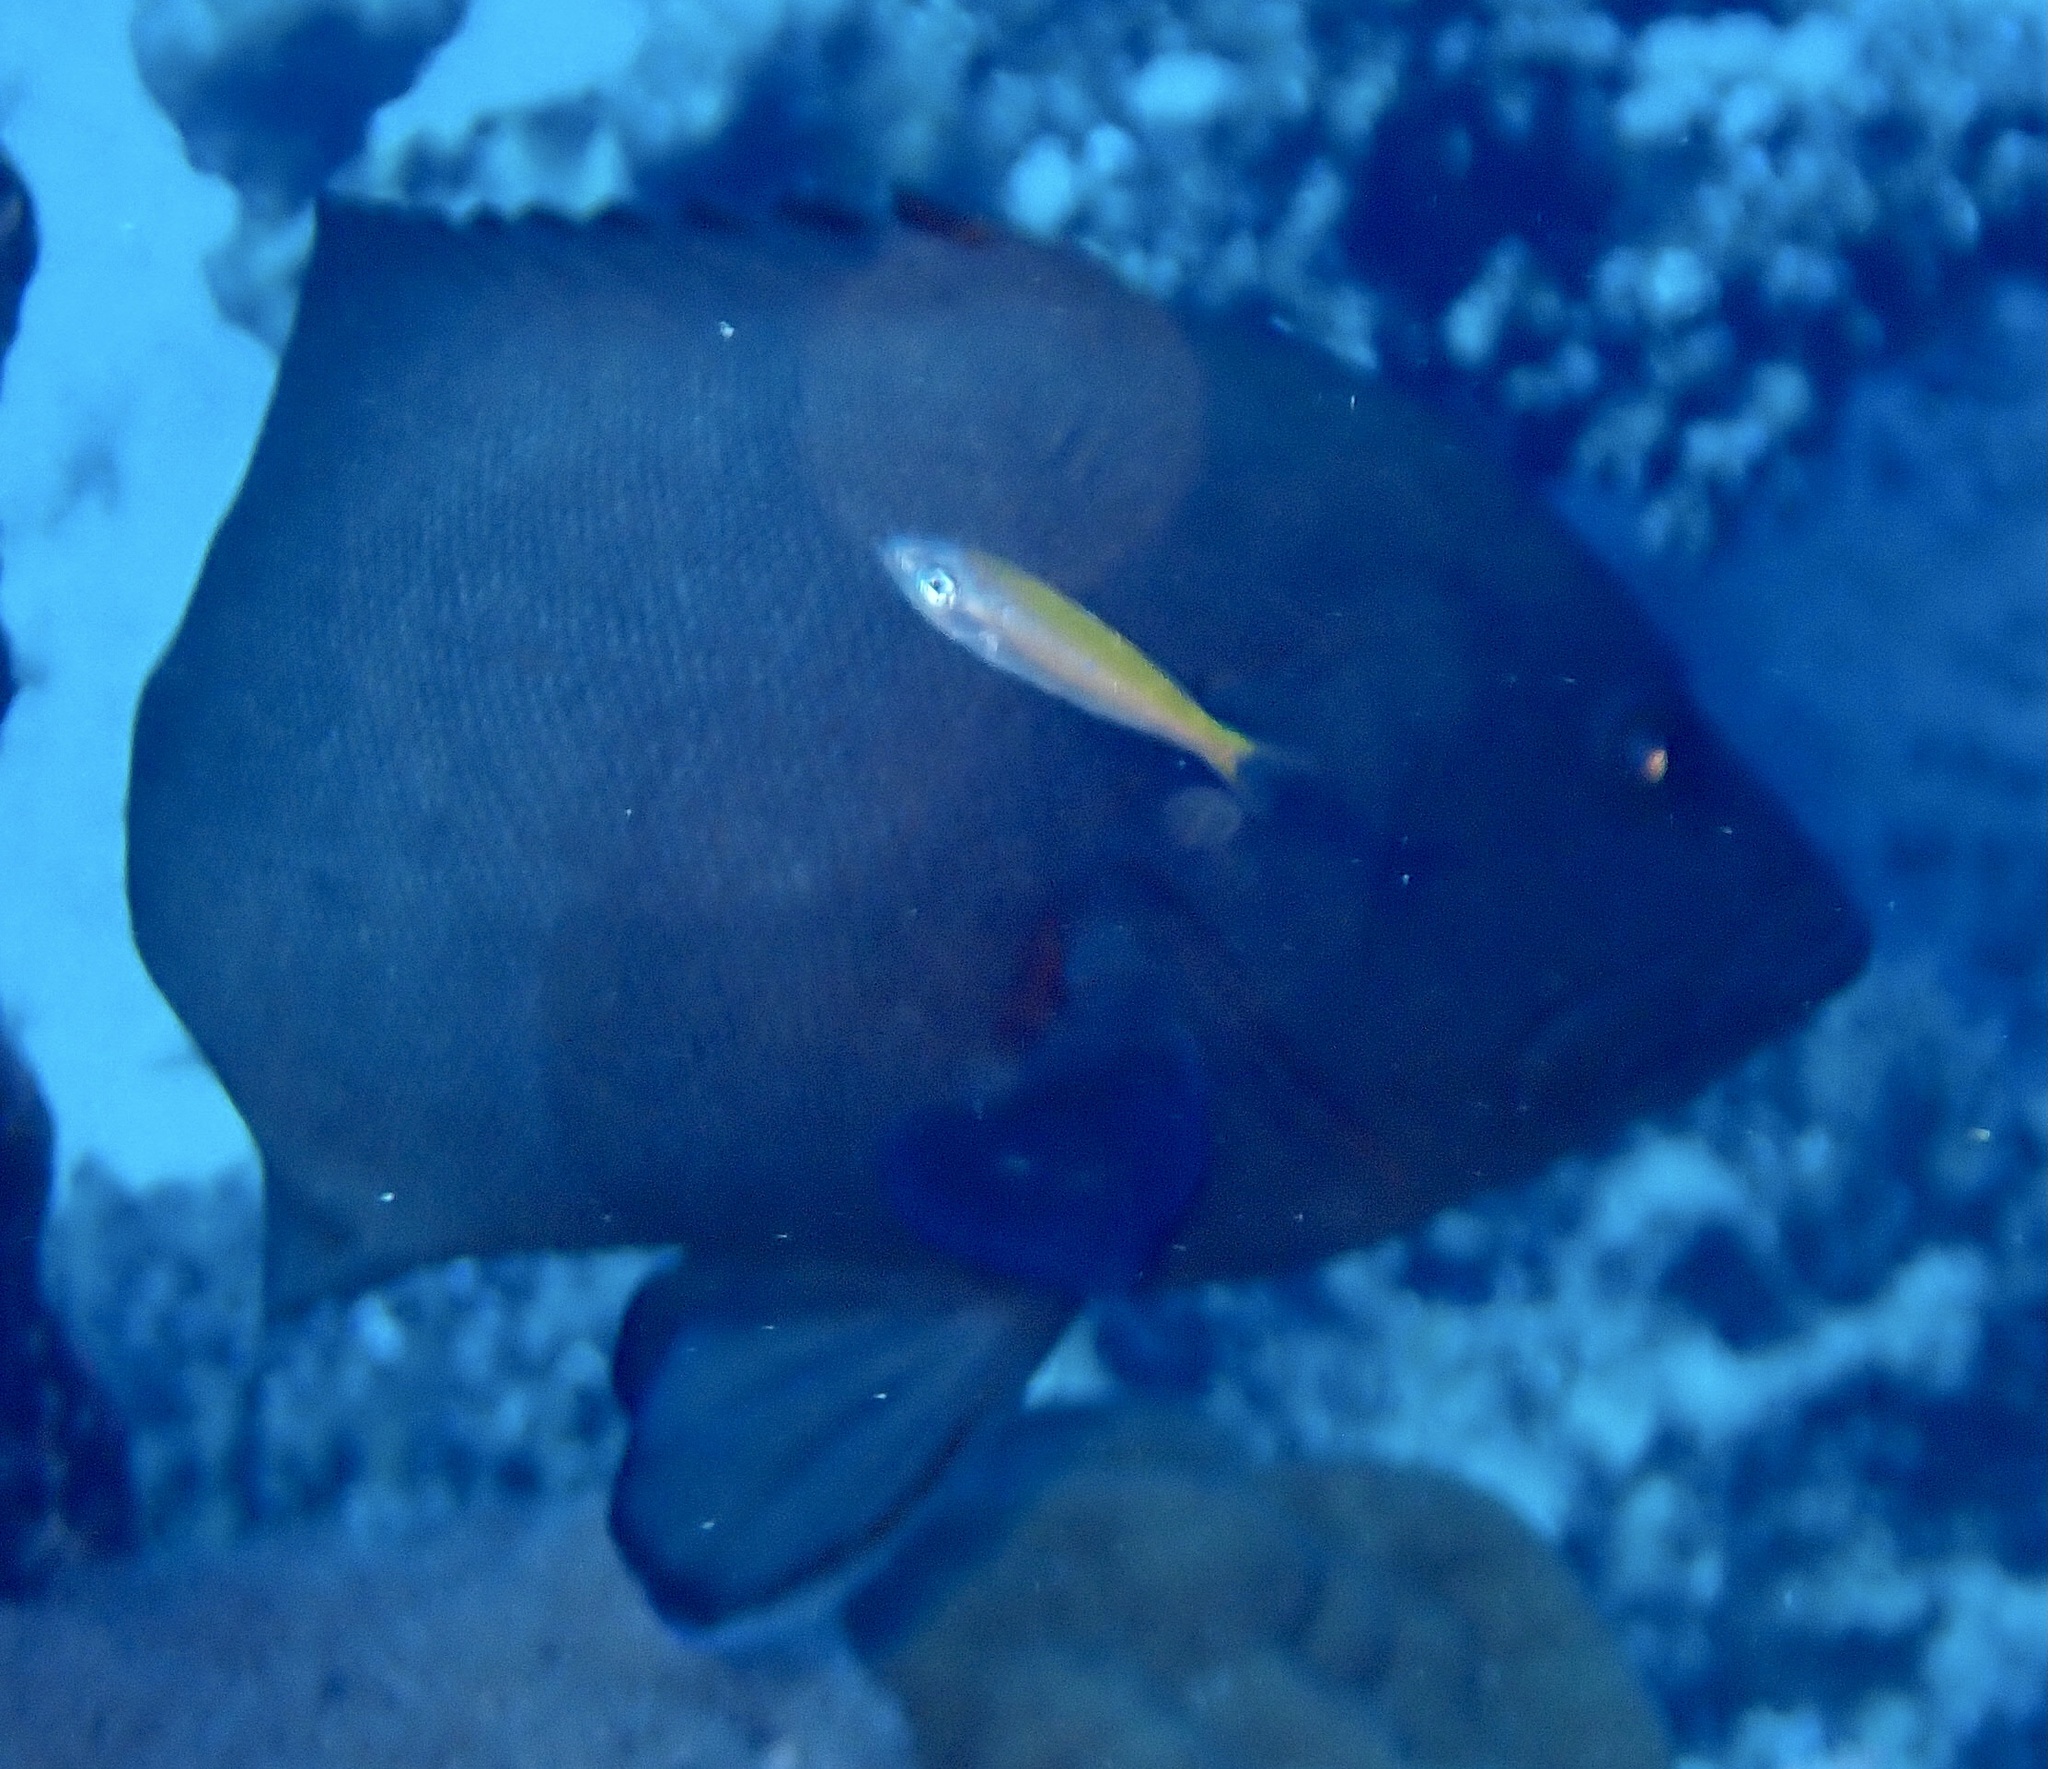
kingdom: Animalia
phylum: Chordata
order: Perciformes
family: Serranidae
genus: Aethaloperca
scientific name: Aethaloperca rogaa
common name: Redmouth grouper
